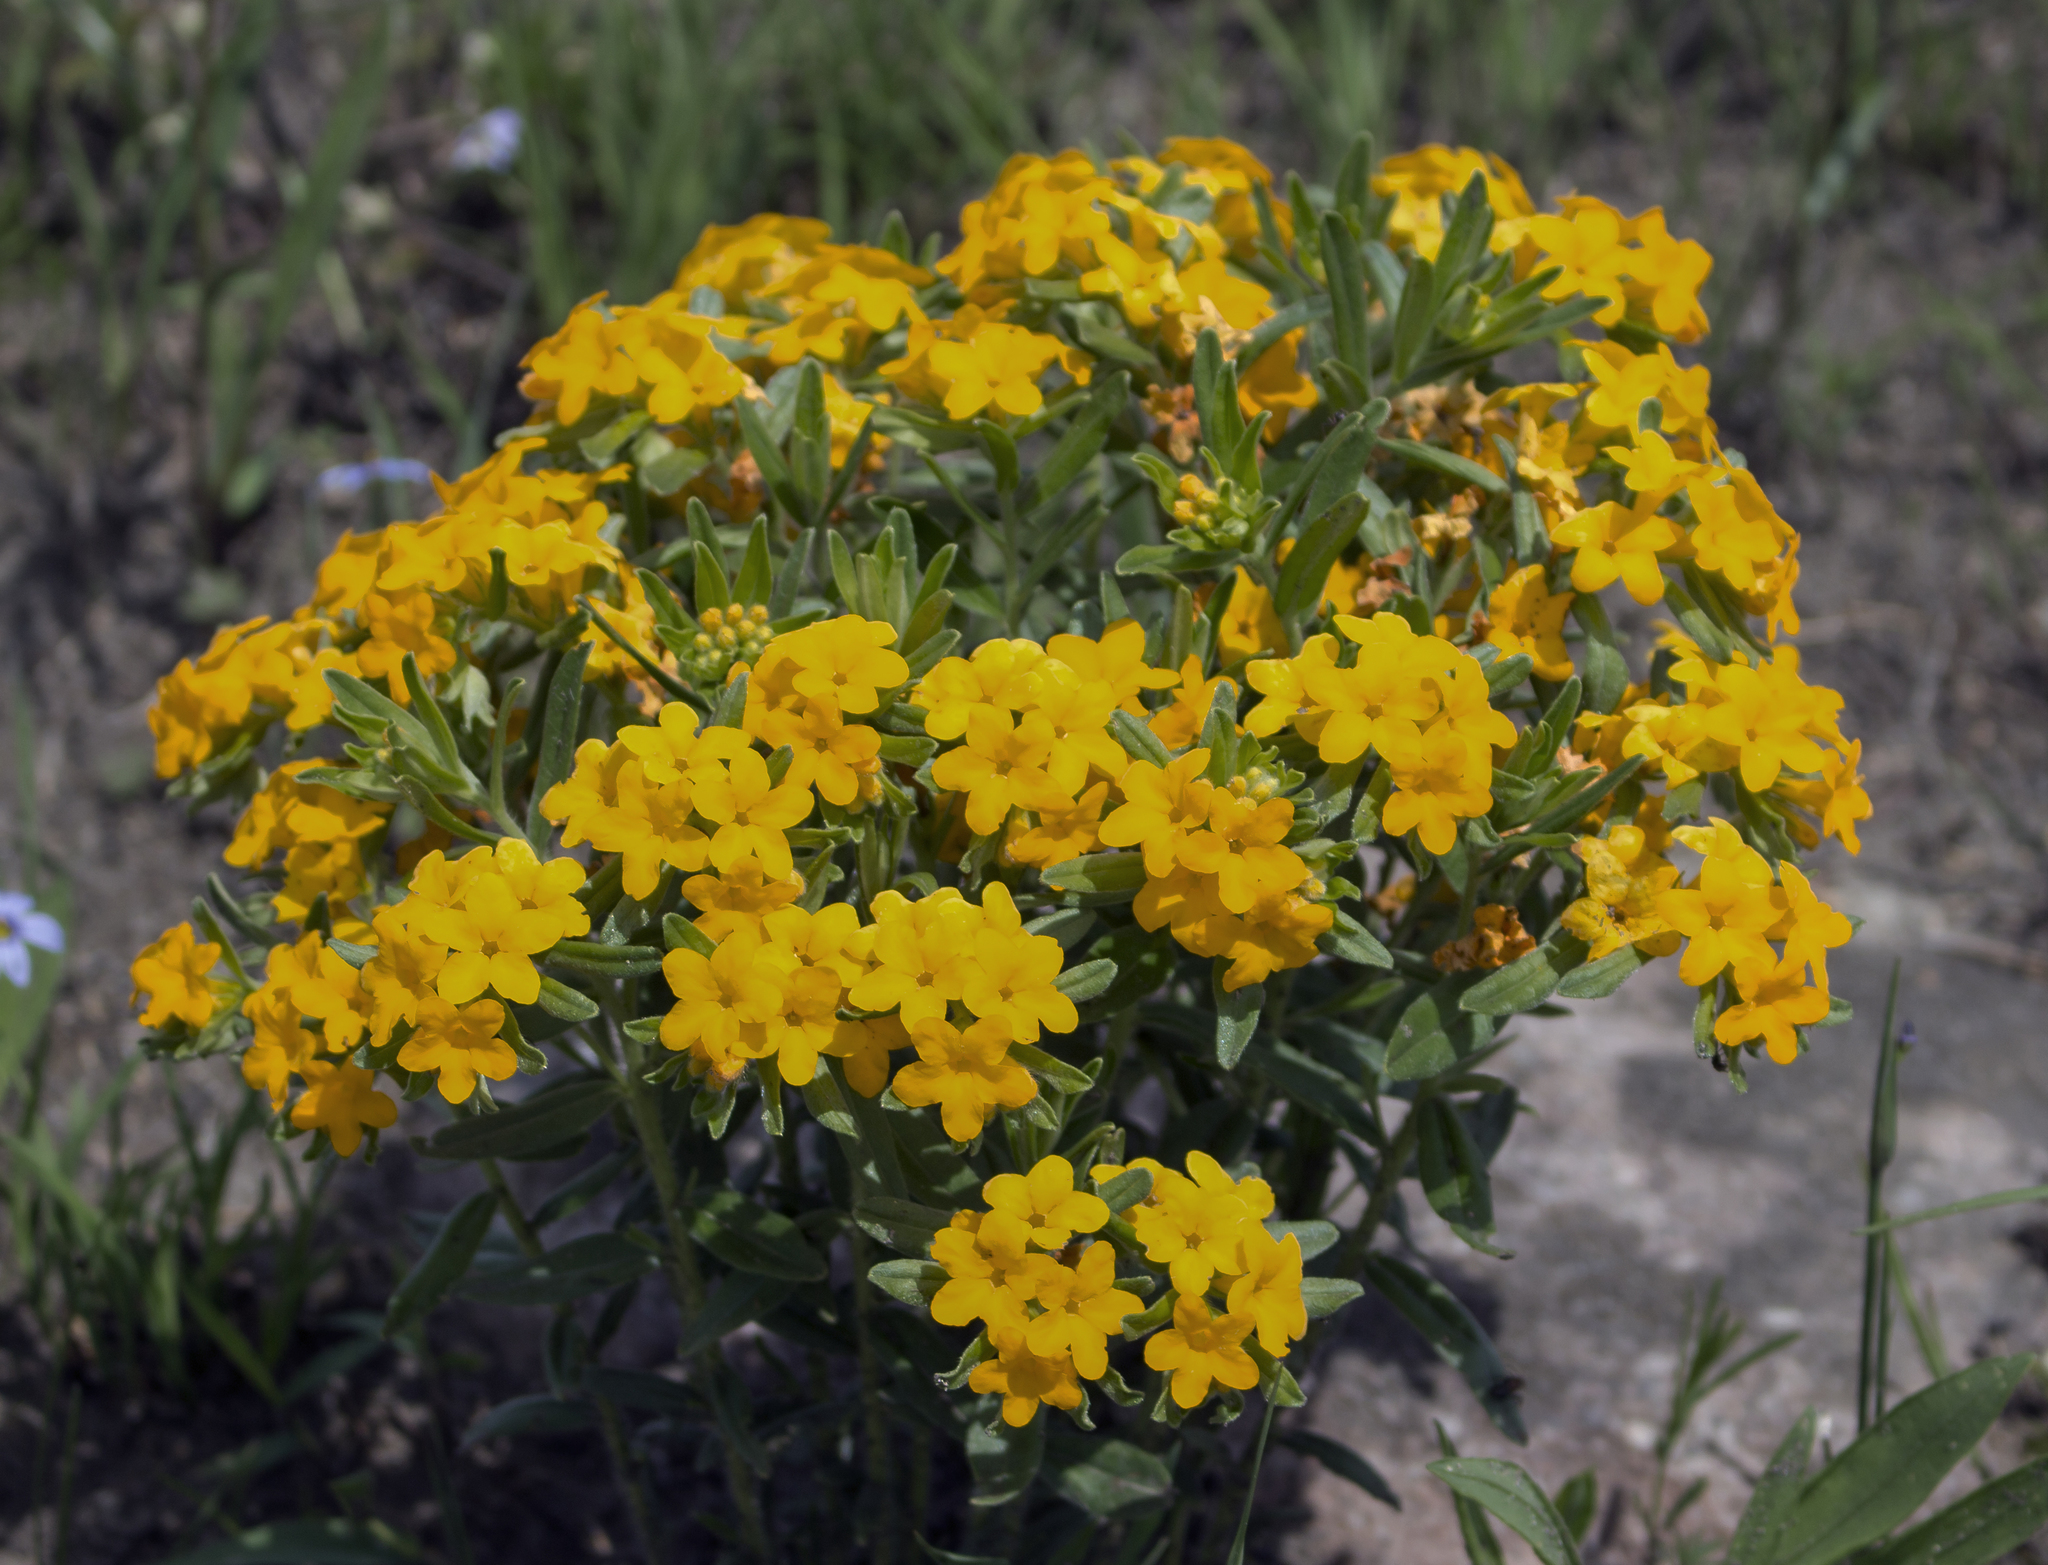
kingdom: Plantae
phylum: Tracheophyta
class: Magnoliopsida
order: Boraginales
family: Boraginaceae
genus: Lithospermum
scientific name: Lithospermum canescens
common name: Hoary puccoon
